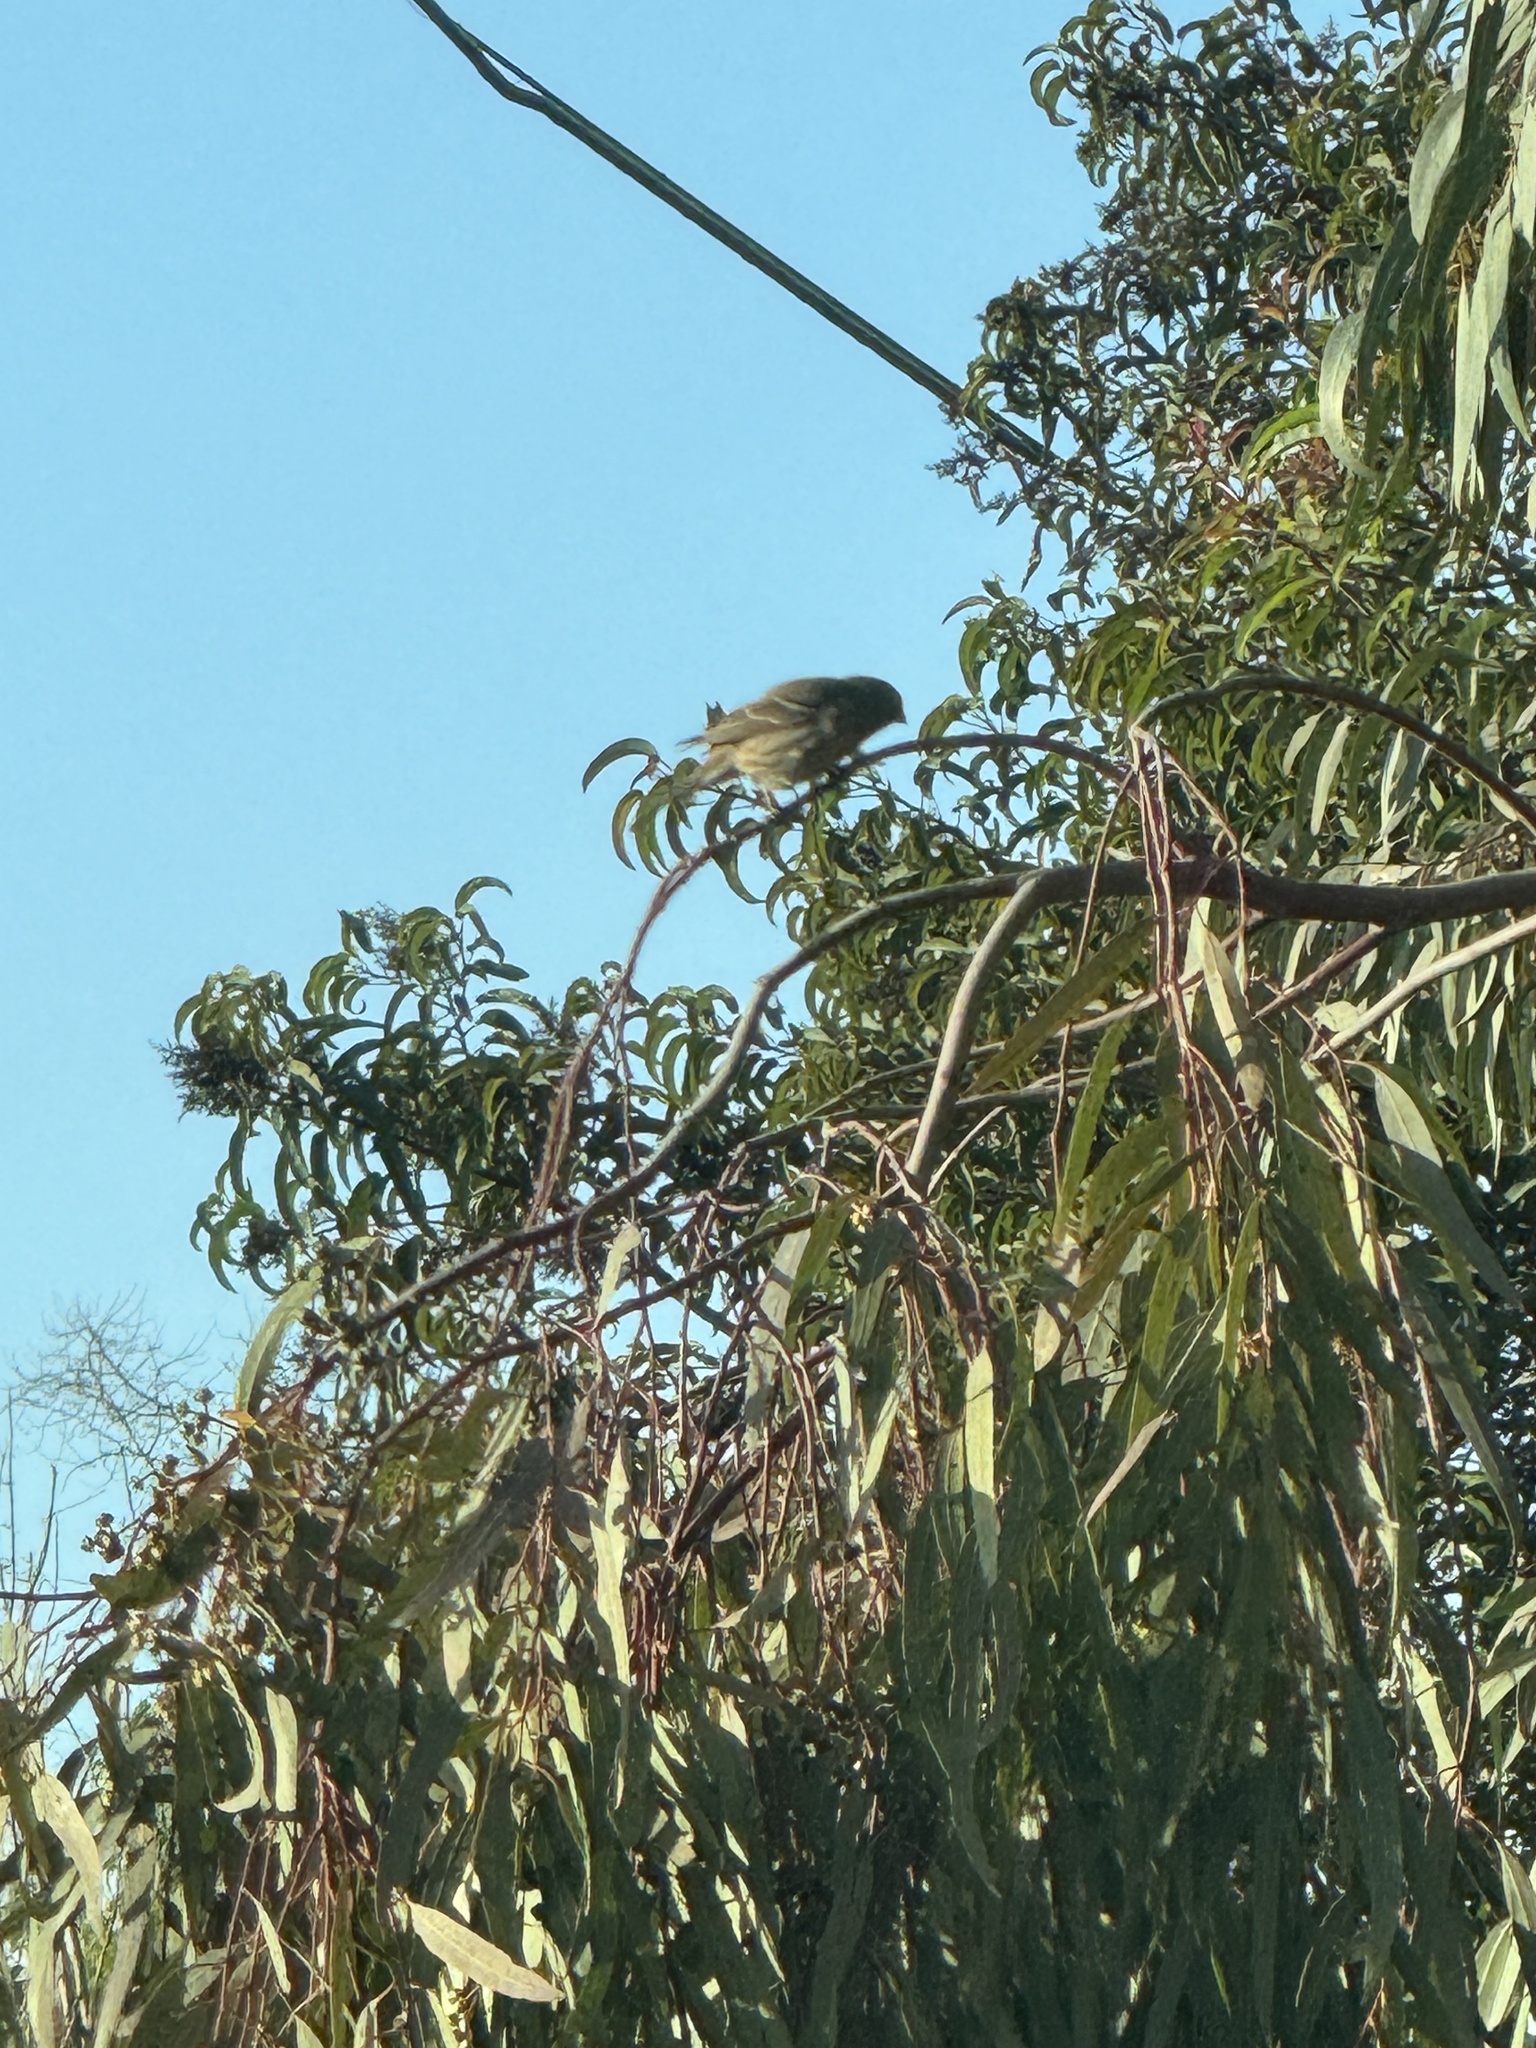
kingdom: Animalia
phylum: Chordata
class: Aves
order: Passeriformes
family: Fringillidae
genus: Haemorhous
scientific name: Haemorhous mexicanus
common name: House finch
